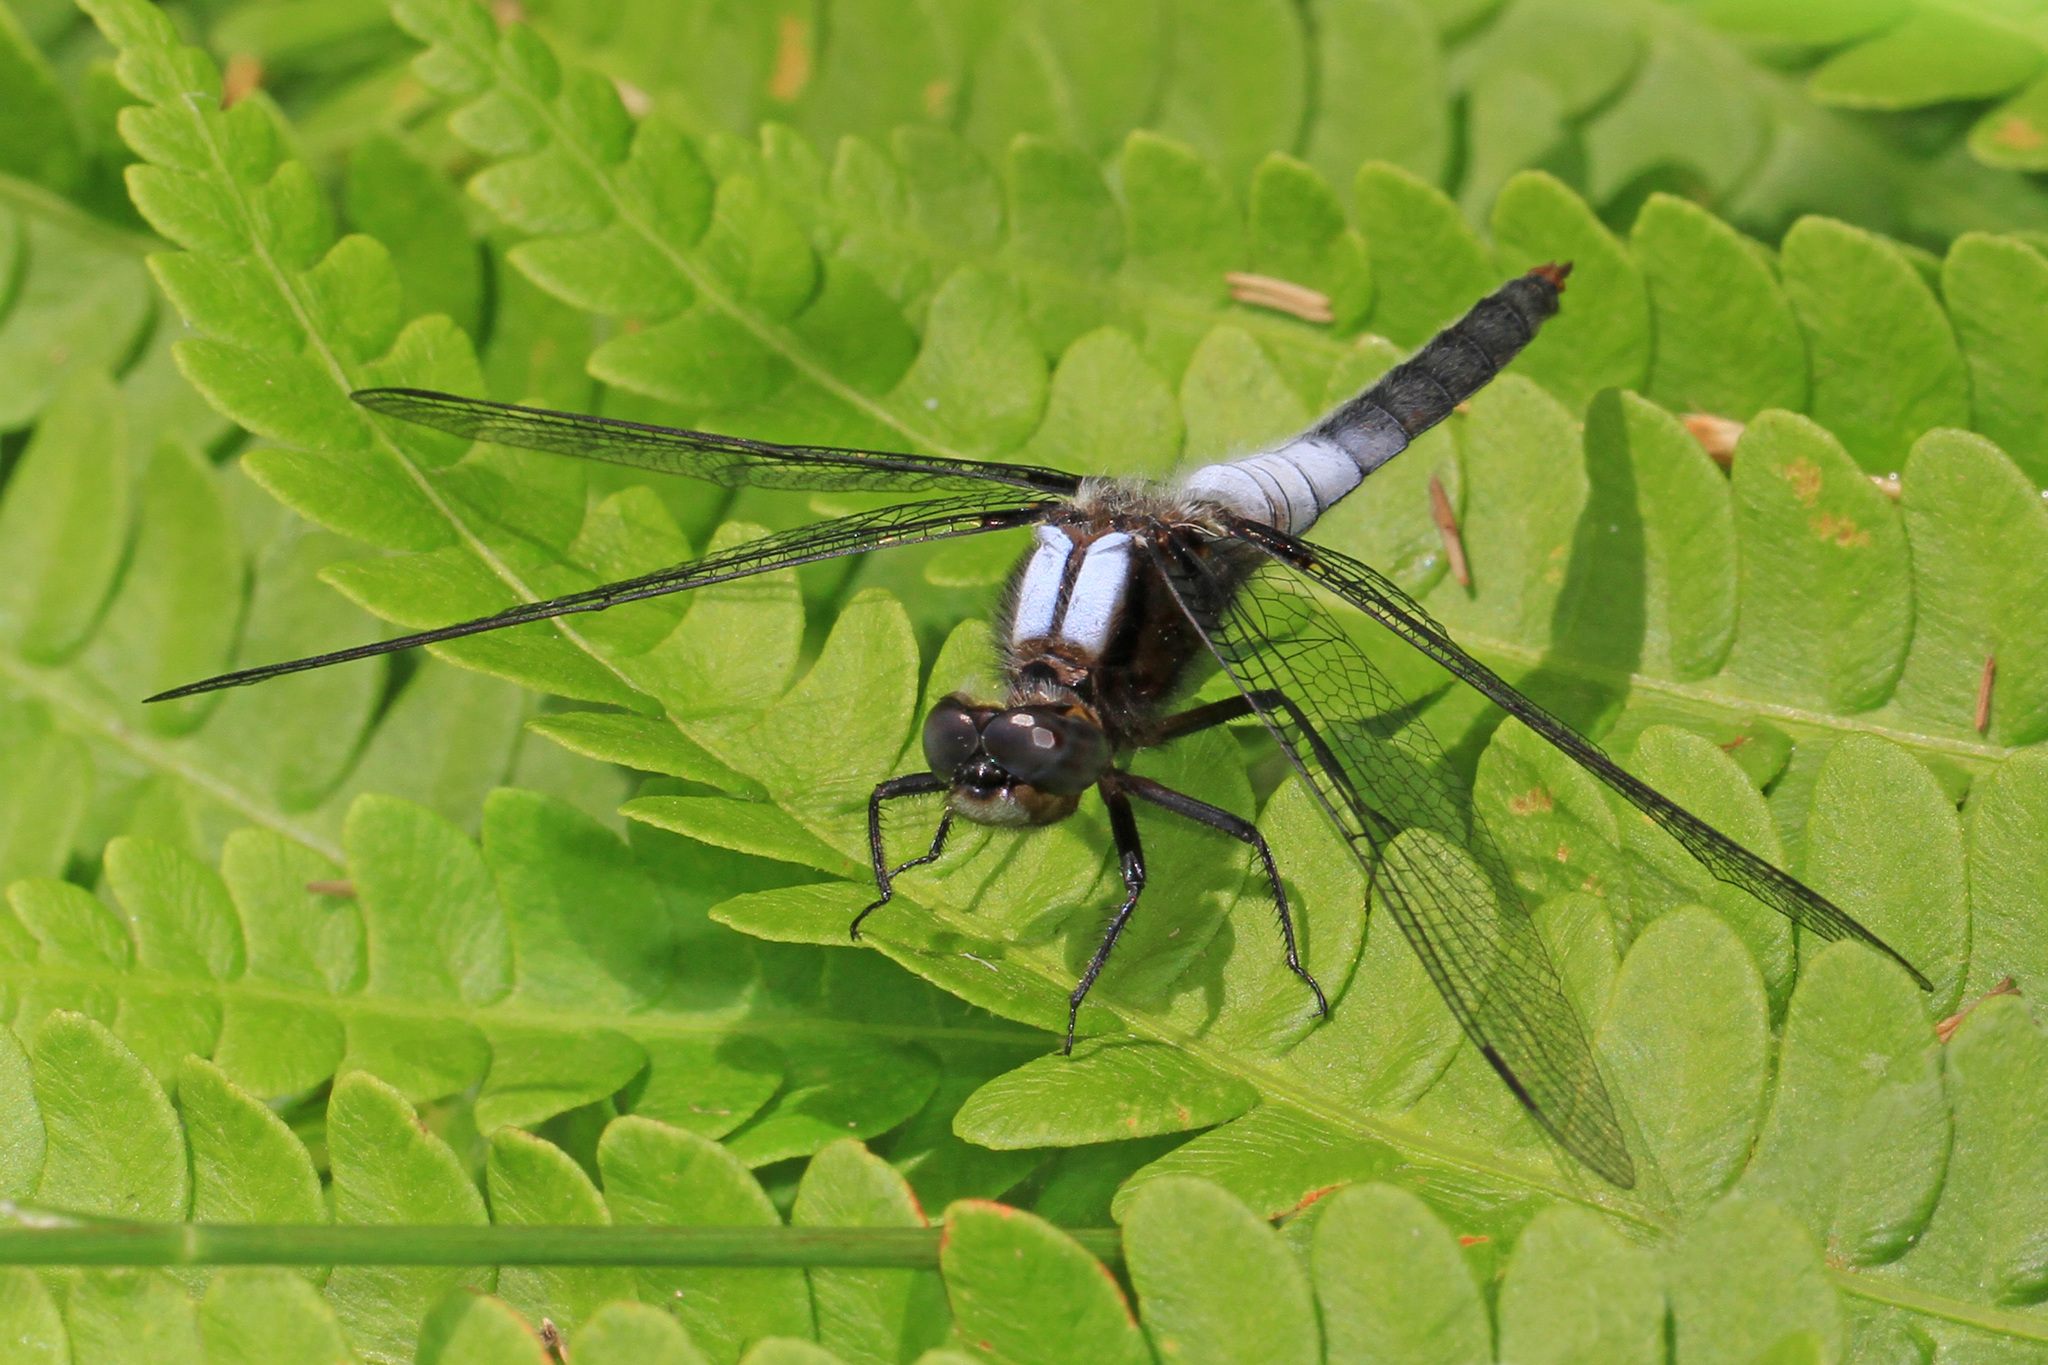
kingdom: Animalia
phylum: Arthropoda
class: Insecta
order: Odonata
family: Libellulidae
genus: Ladona
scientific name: Ladona julia
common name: Chalk-fronted corporal
